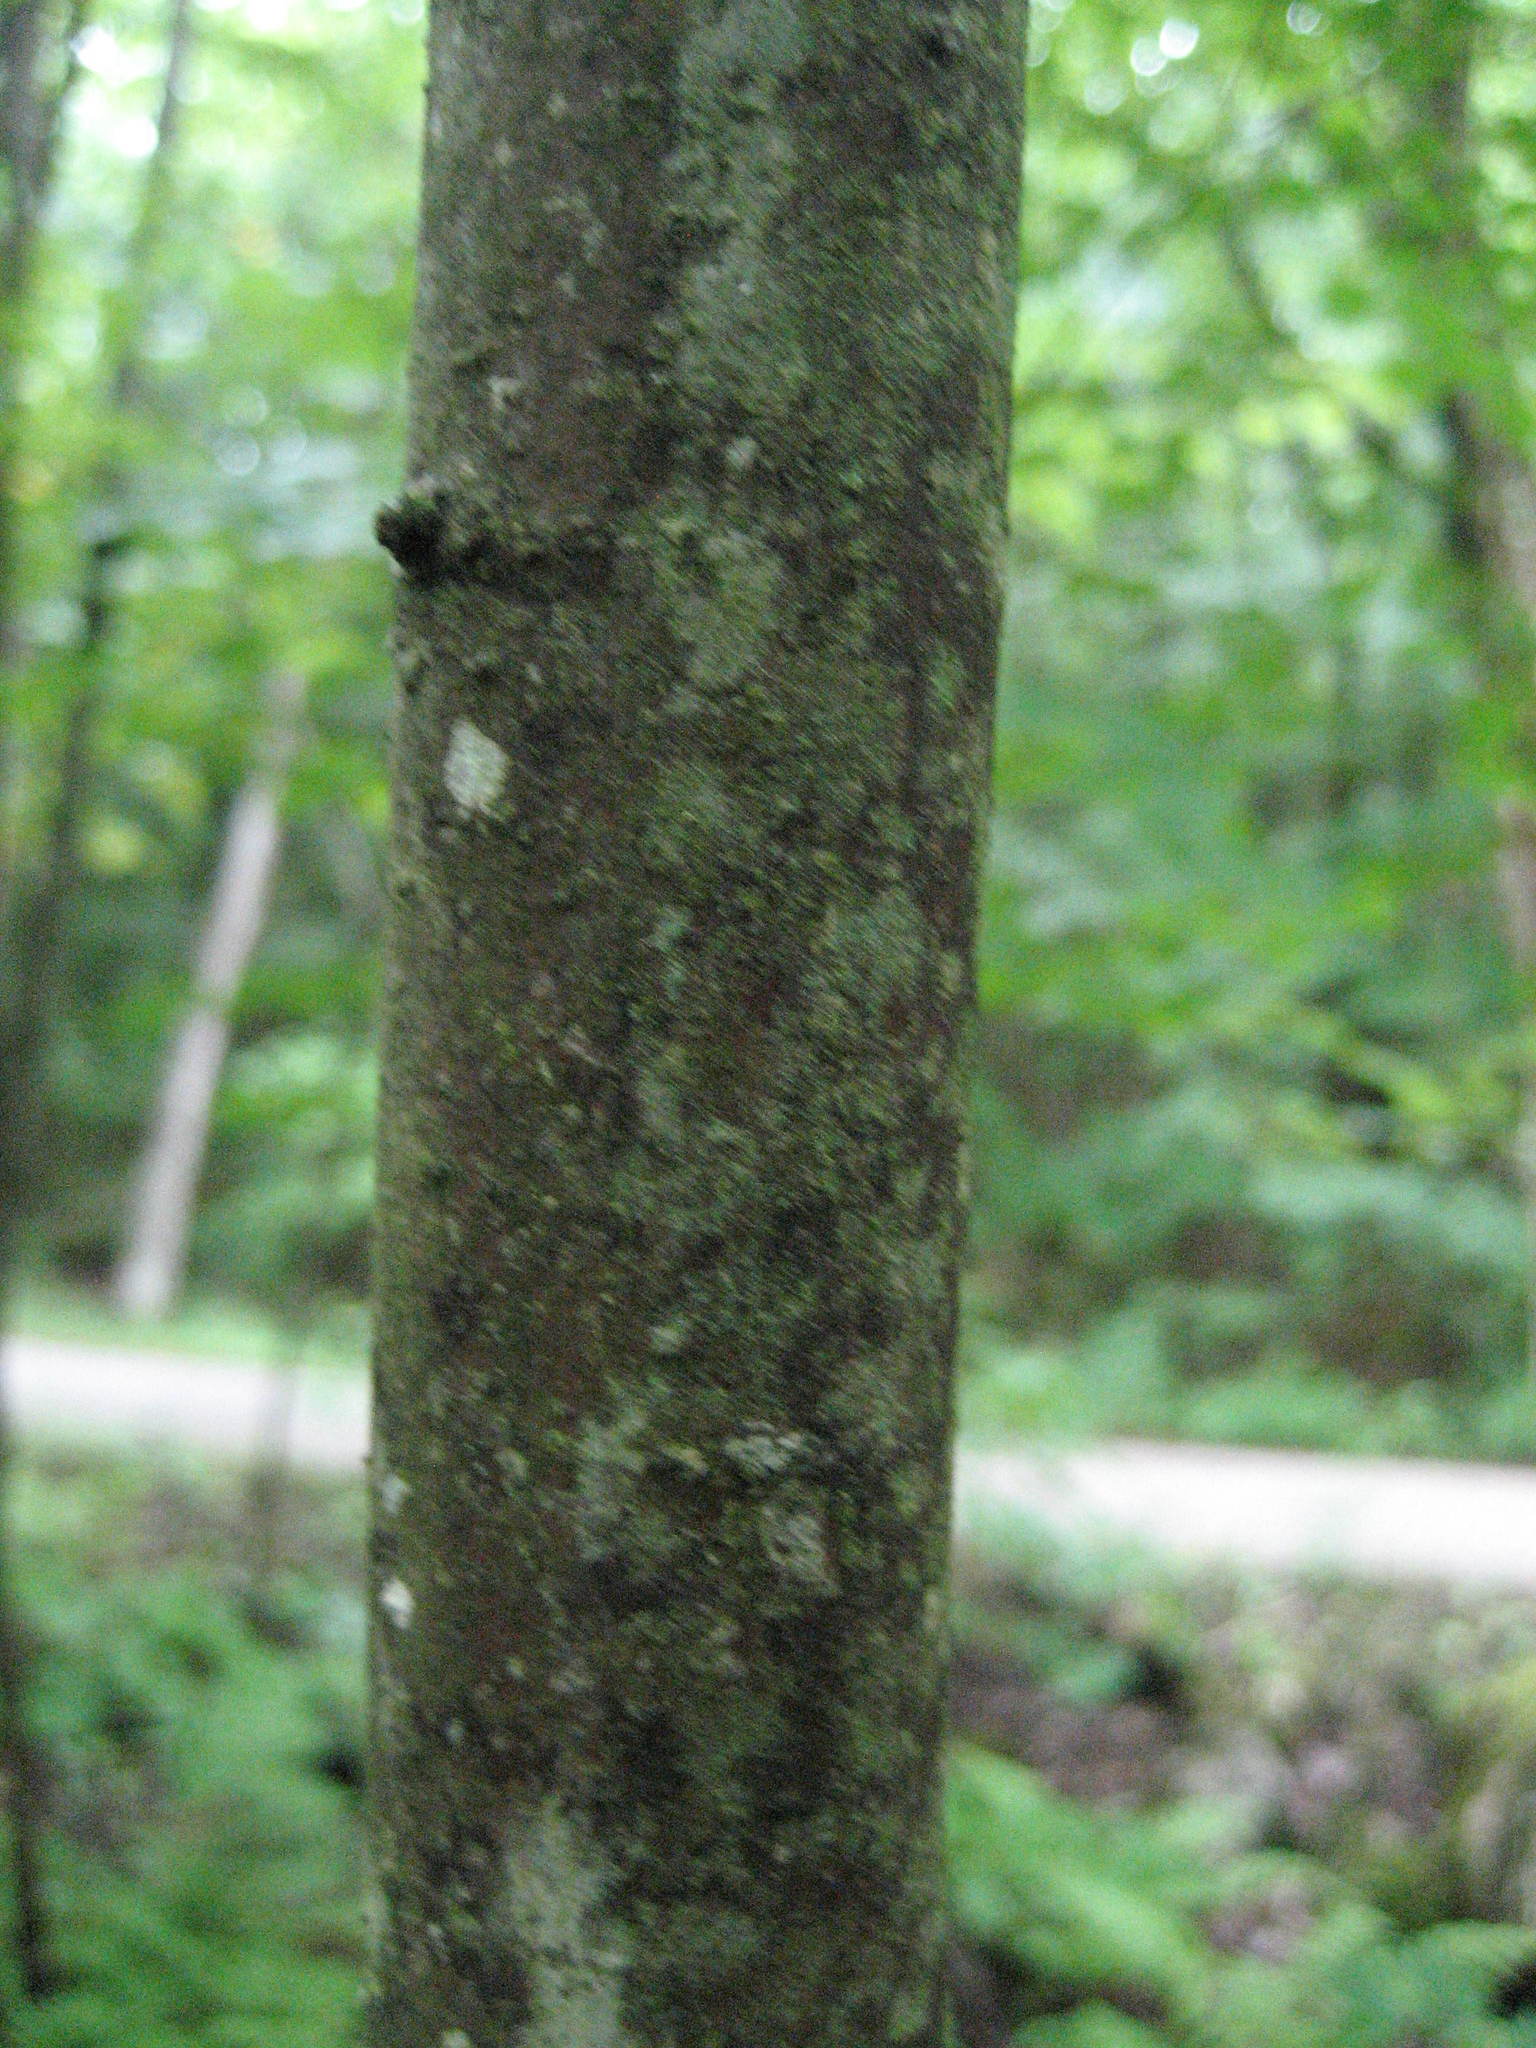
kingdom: Plantae
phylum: Tracheophyta
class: Magnoliopsida
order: Sapindales
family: Sapindaceae
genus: Acer
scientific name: Acer rubrum
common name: Red maple
